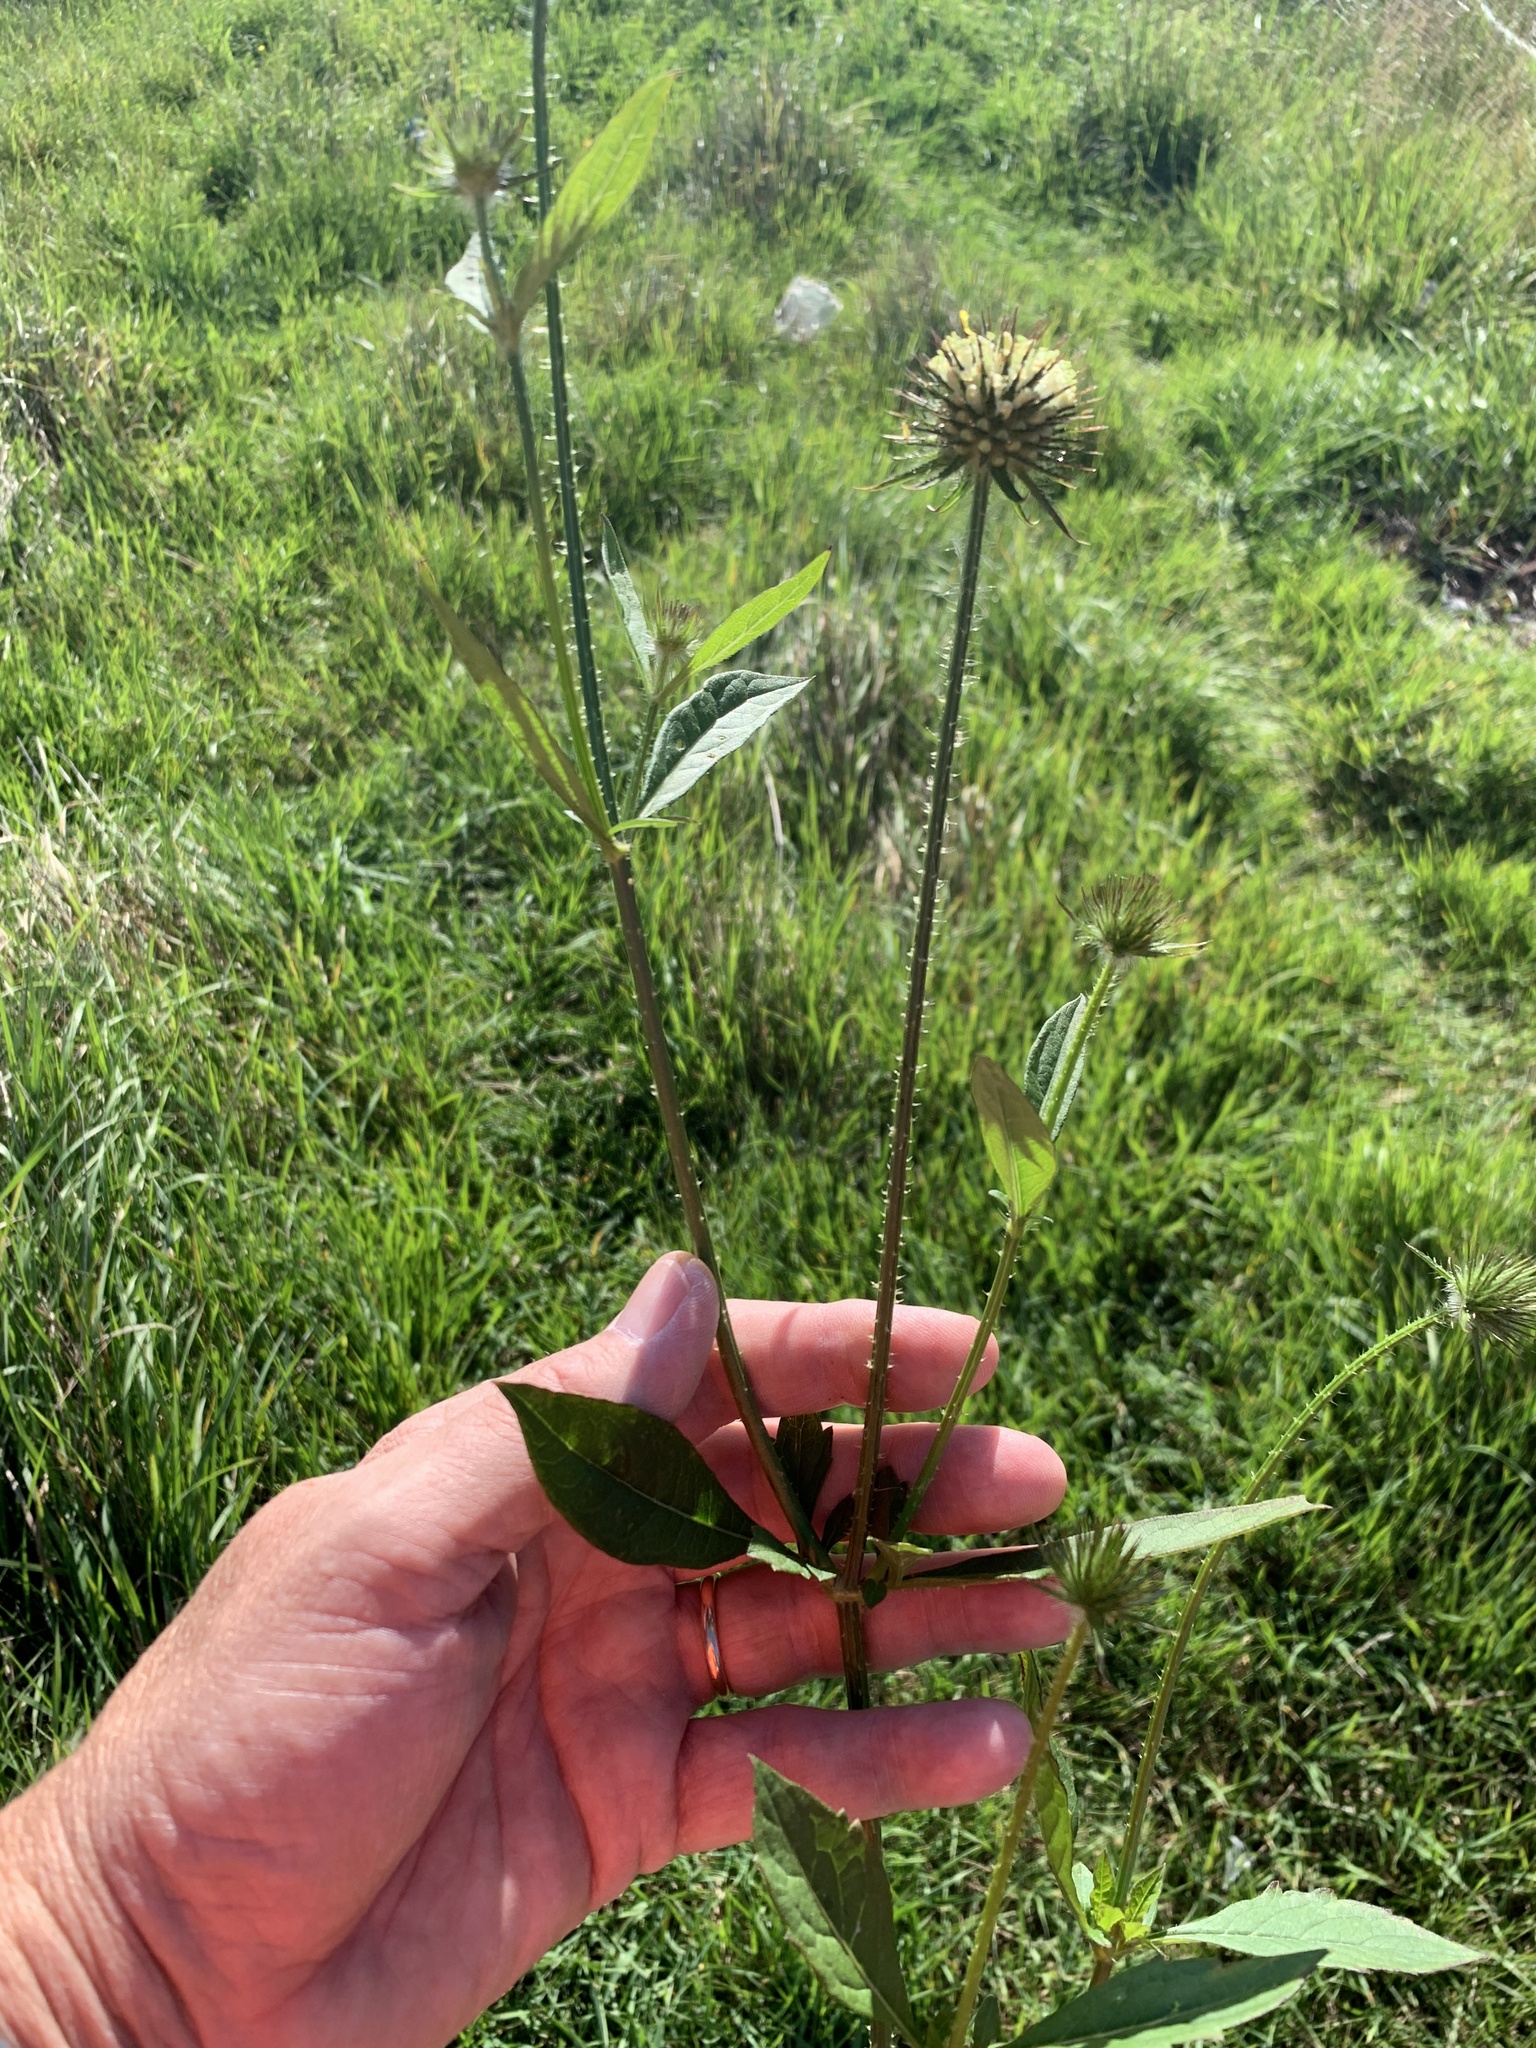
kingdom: Plantae
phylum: Tracheophyta
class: Magnoliopsida
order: Dipsacales
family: Caprifoliaceae
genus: Dipsacus
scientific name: Dipsacus strigosus
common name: Yellow-flowered teasel
